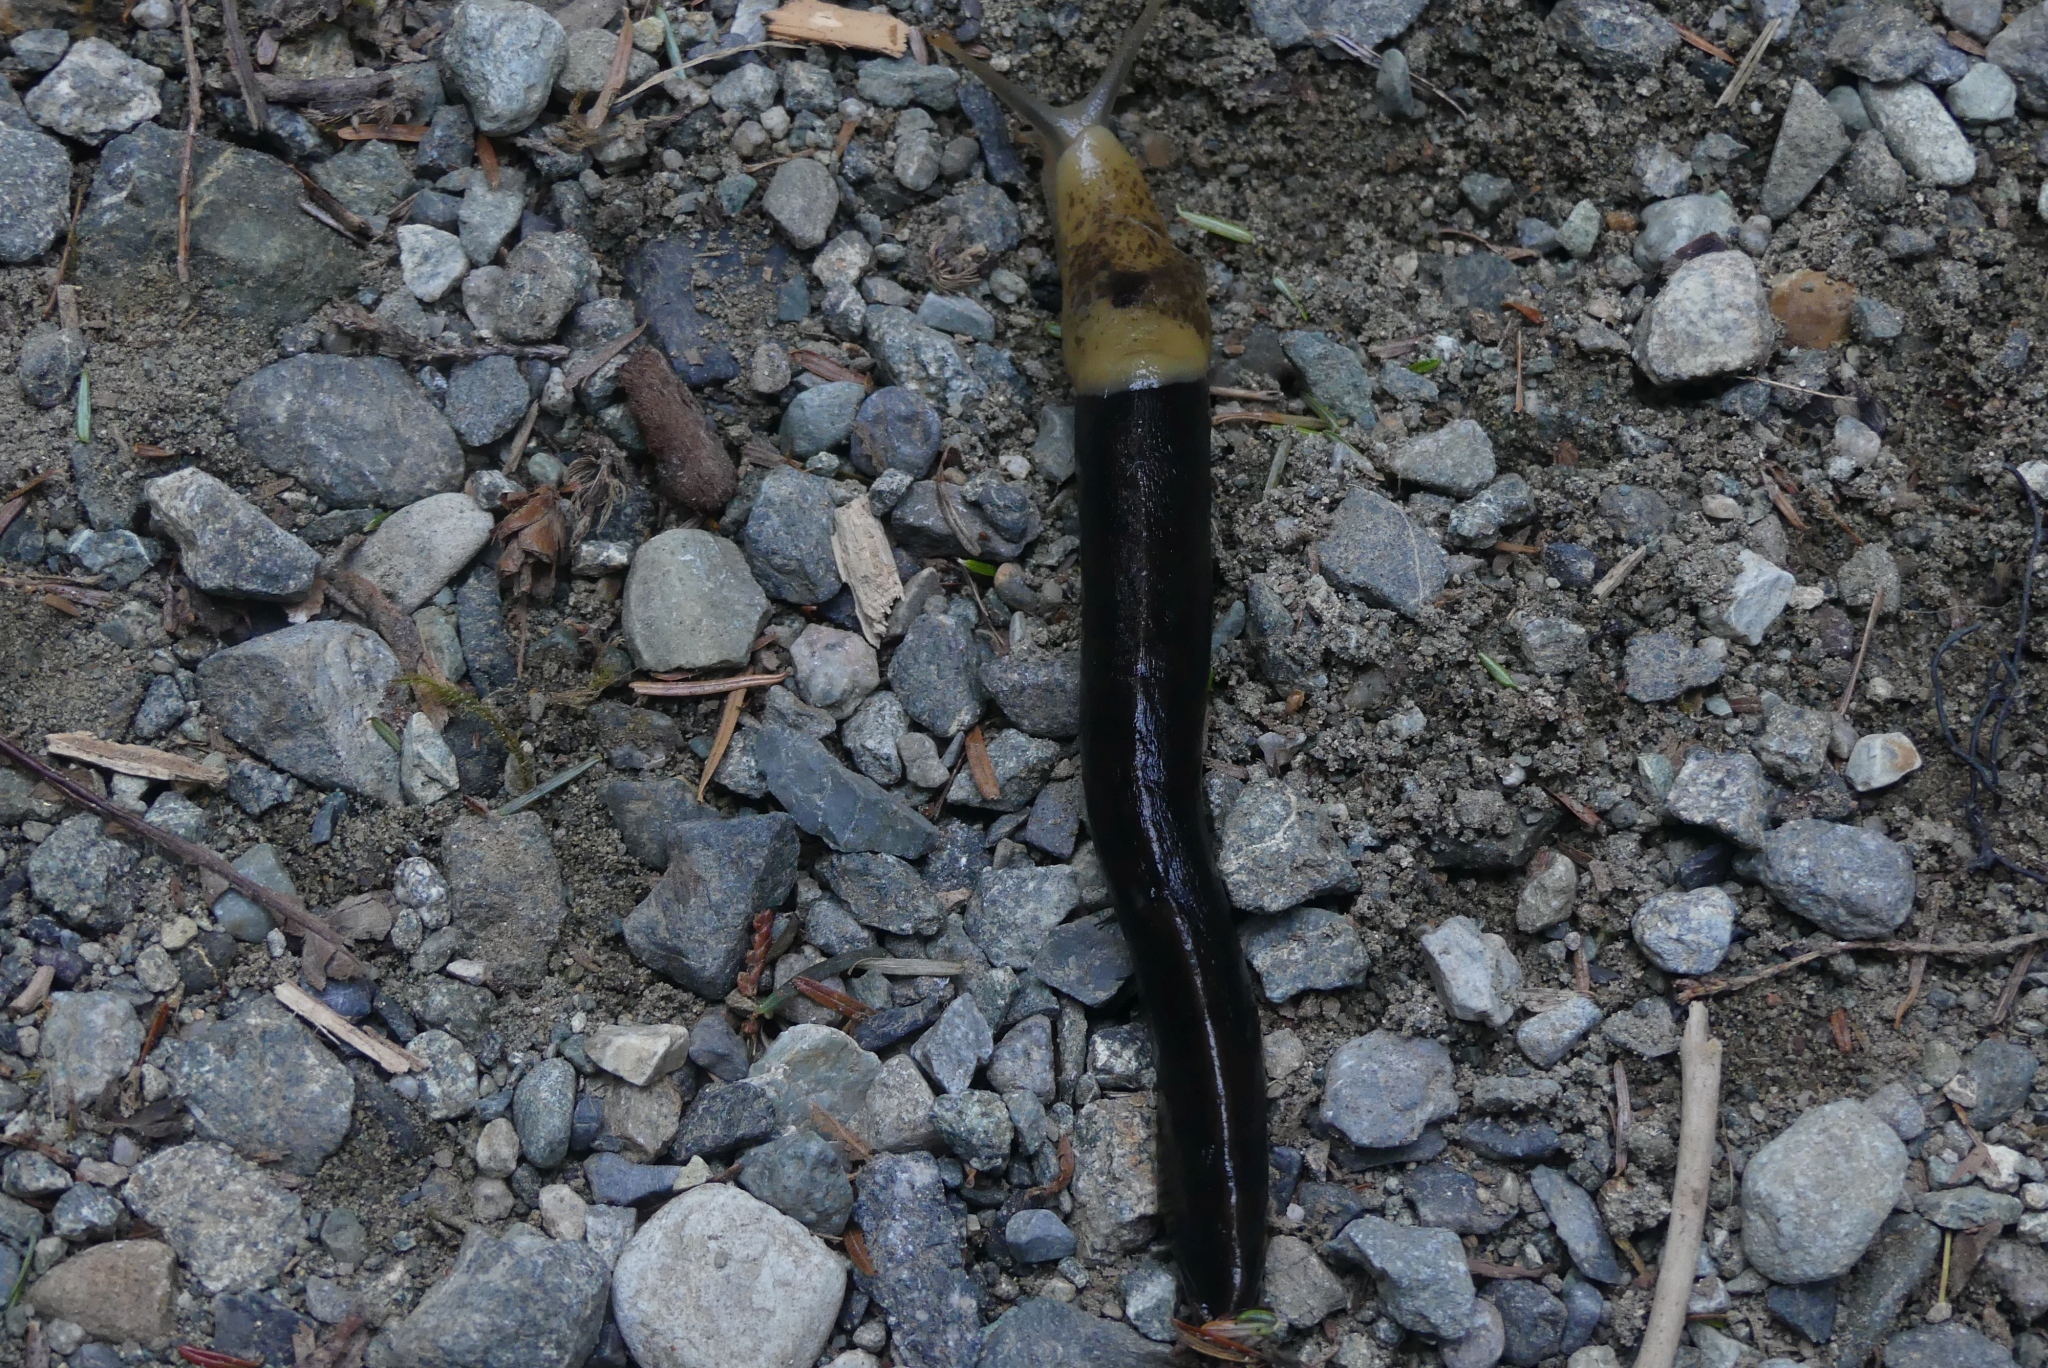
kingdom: Animalia
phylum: Mollusca
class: Gastropoda
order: Stylommatophora
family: Ariolimacidae
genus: Ariolimax
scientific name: Ariolimax columbianus
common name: Pacific banana slug
